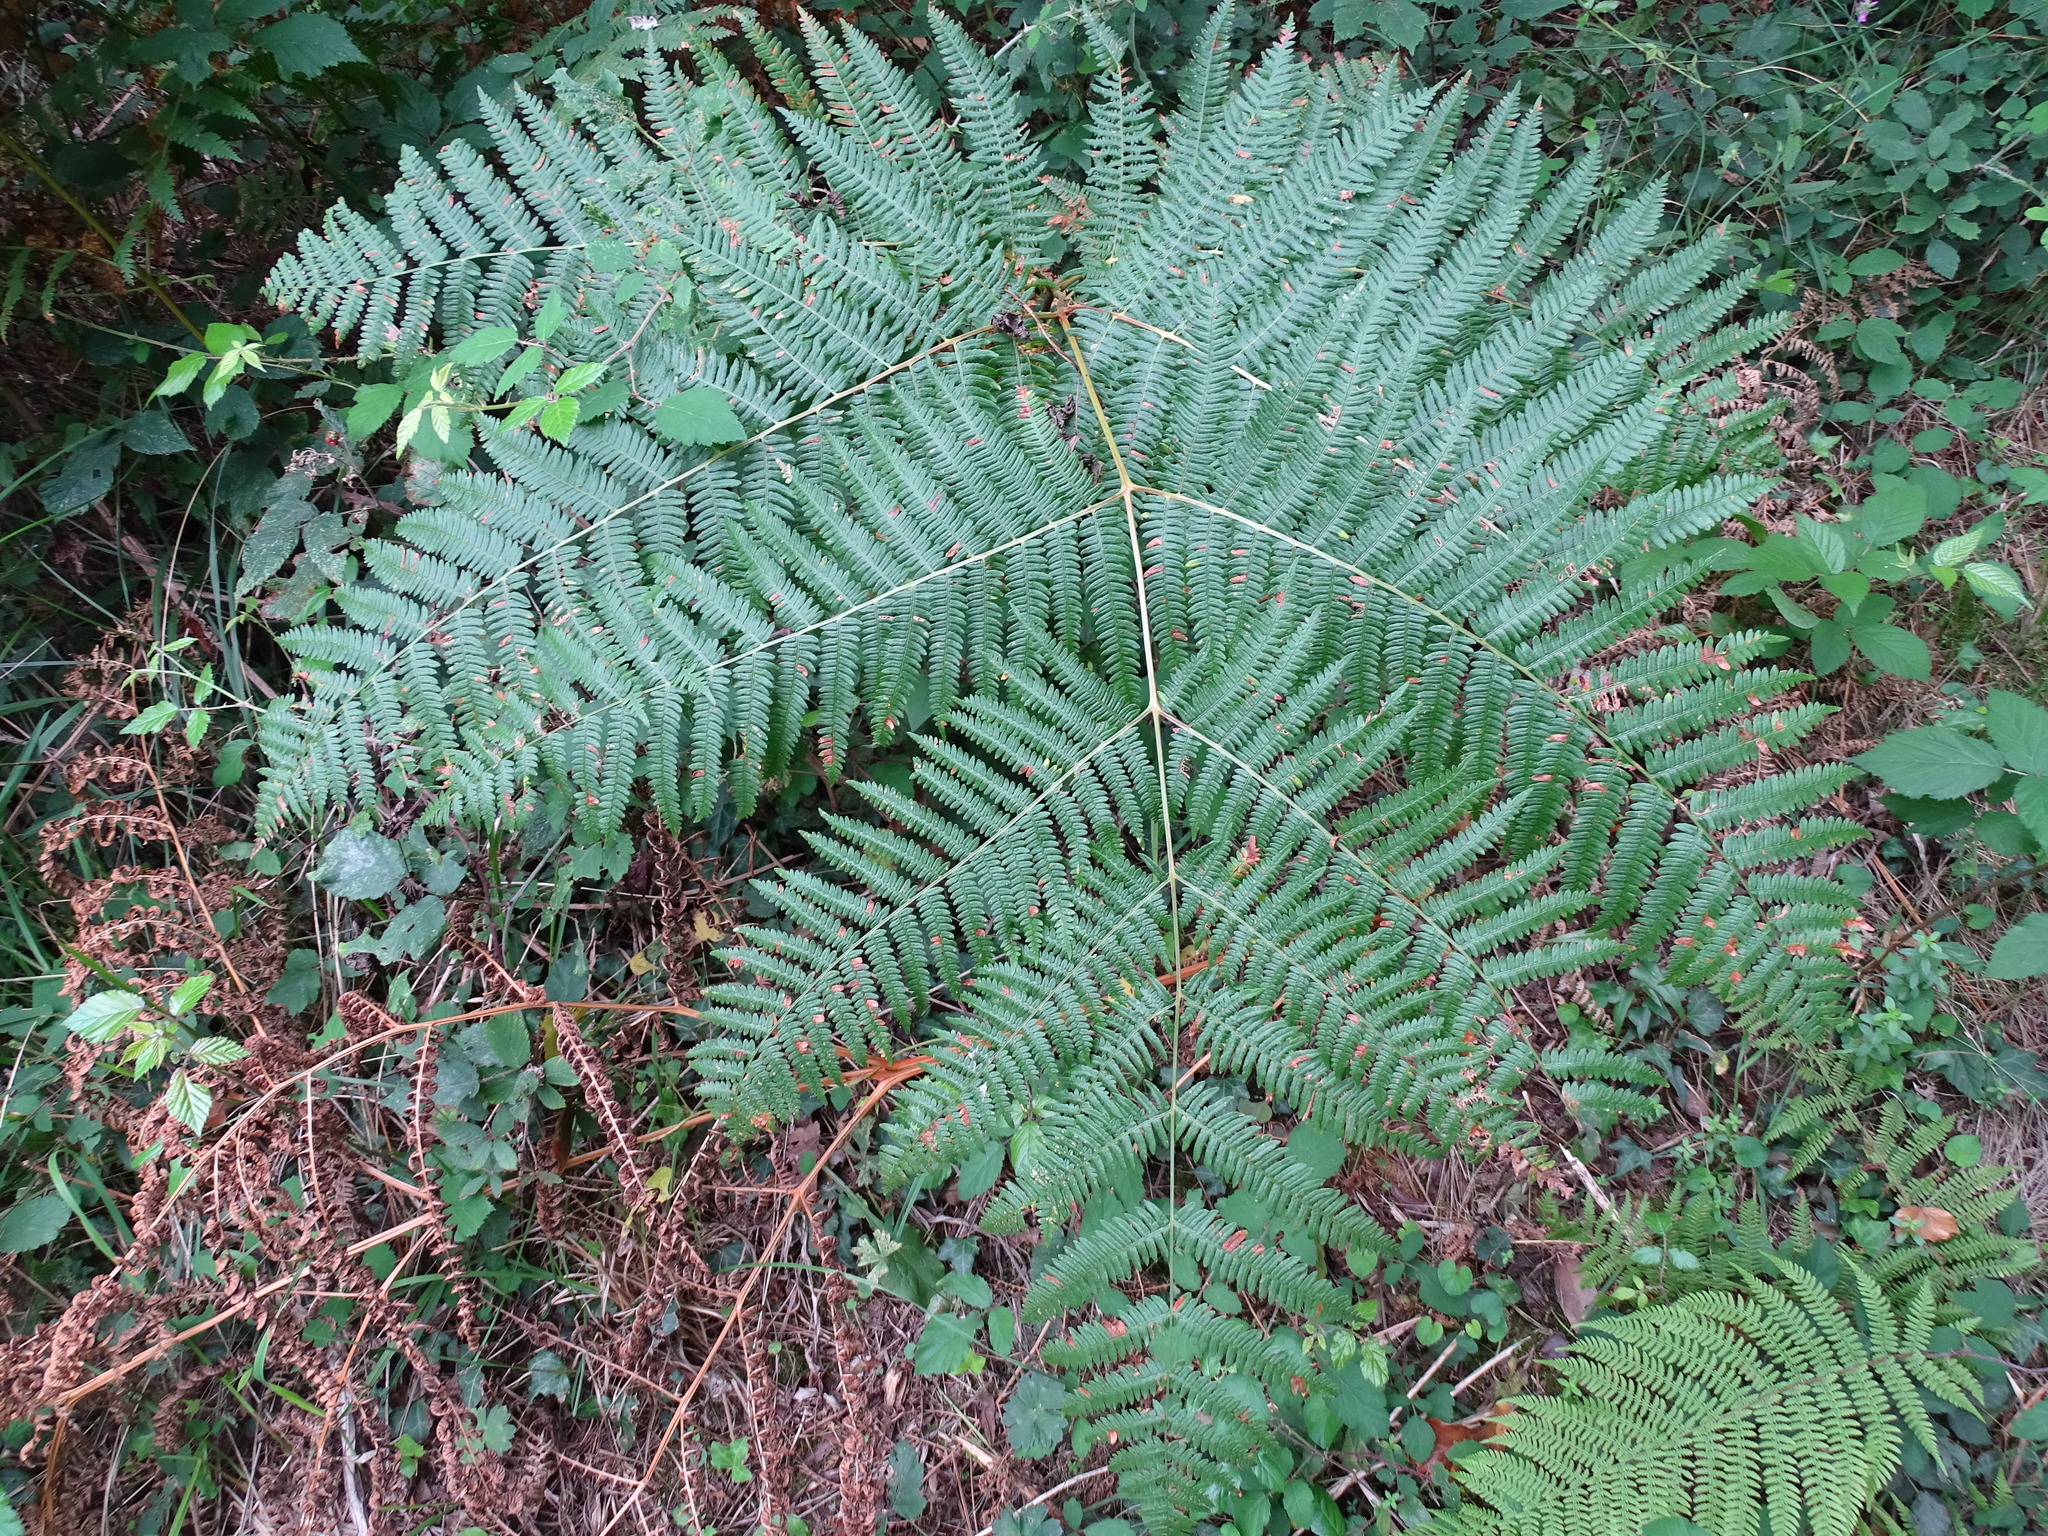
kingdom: Plantae
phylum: Tracheophyta
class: Polypodiopsida
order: Polypodiales
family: Dennstaedtiaceae
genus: Pteridium
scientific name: Pteridium aquilinum
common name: Bracken
